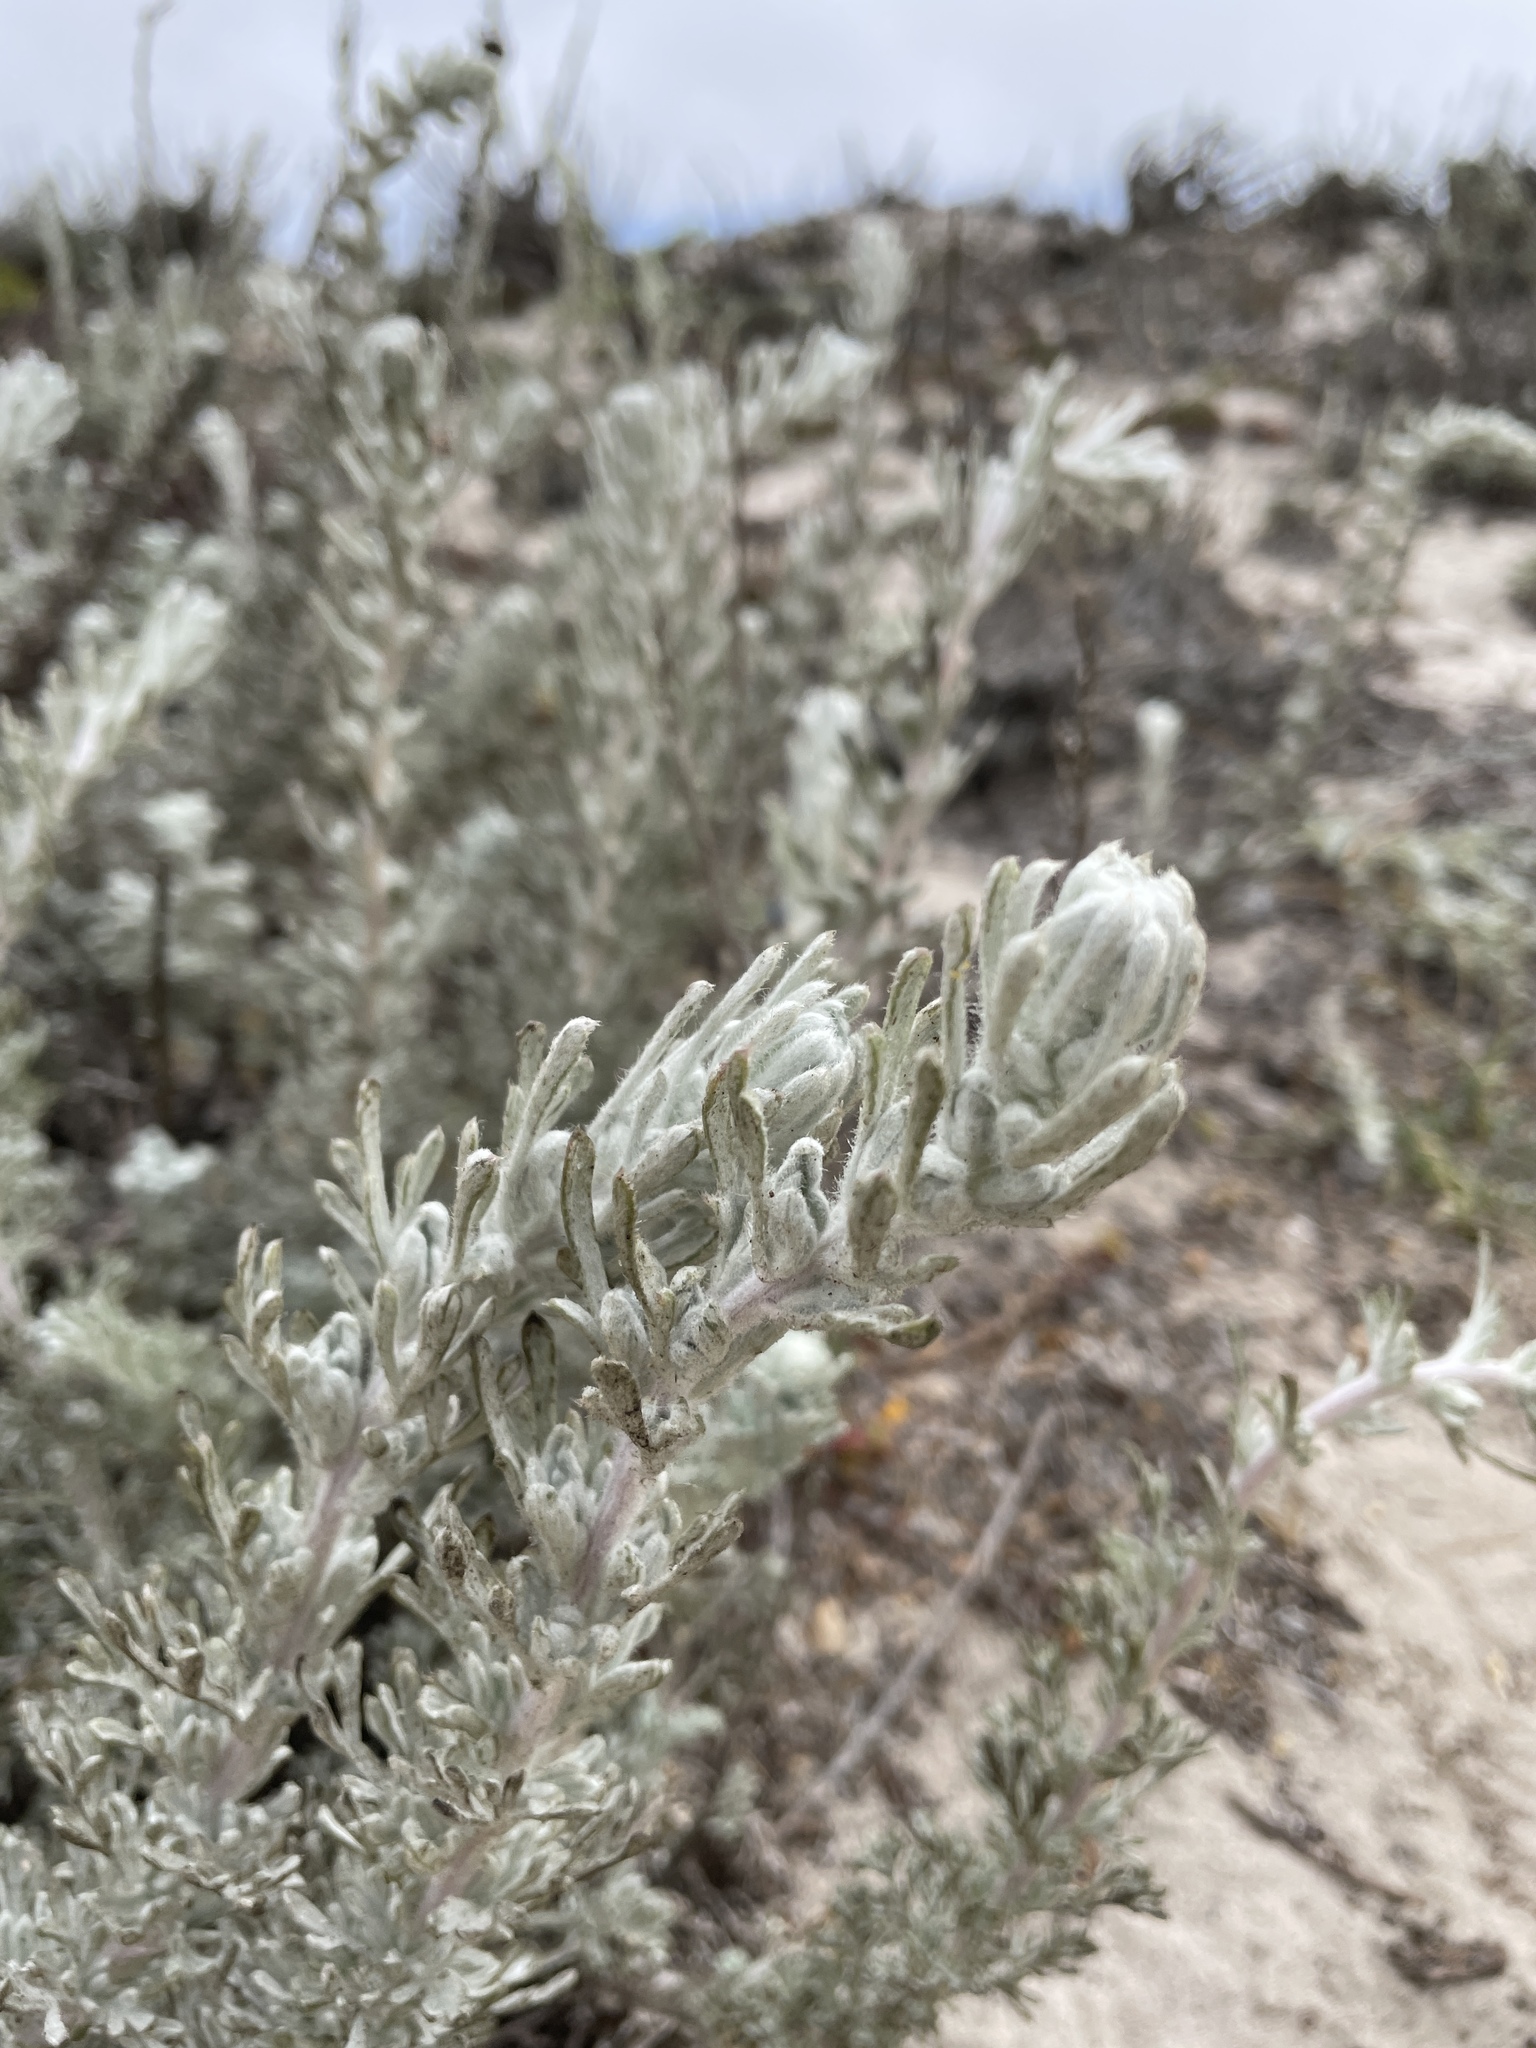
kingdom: Plantae
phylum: Tracheophyta
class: Magnoliopsida
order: Asterales
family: Asteraceae
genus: Artemisia
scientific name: Artemisia pycnocephala
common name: Coastal sagewort
